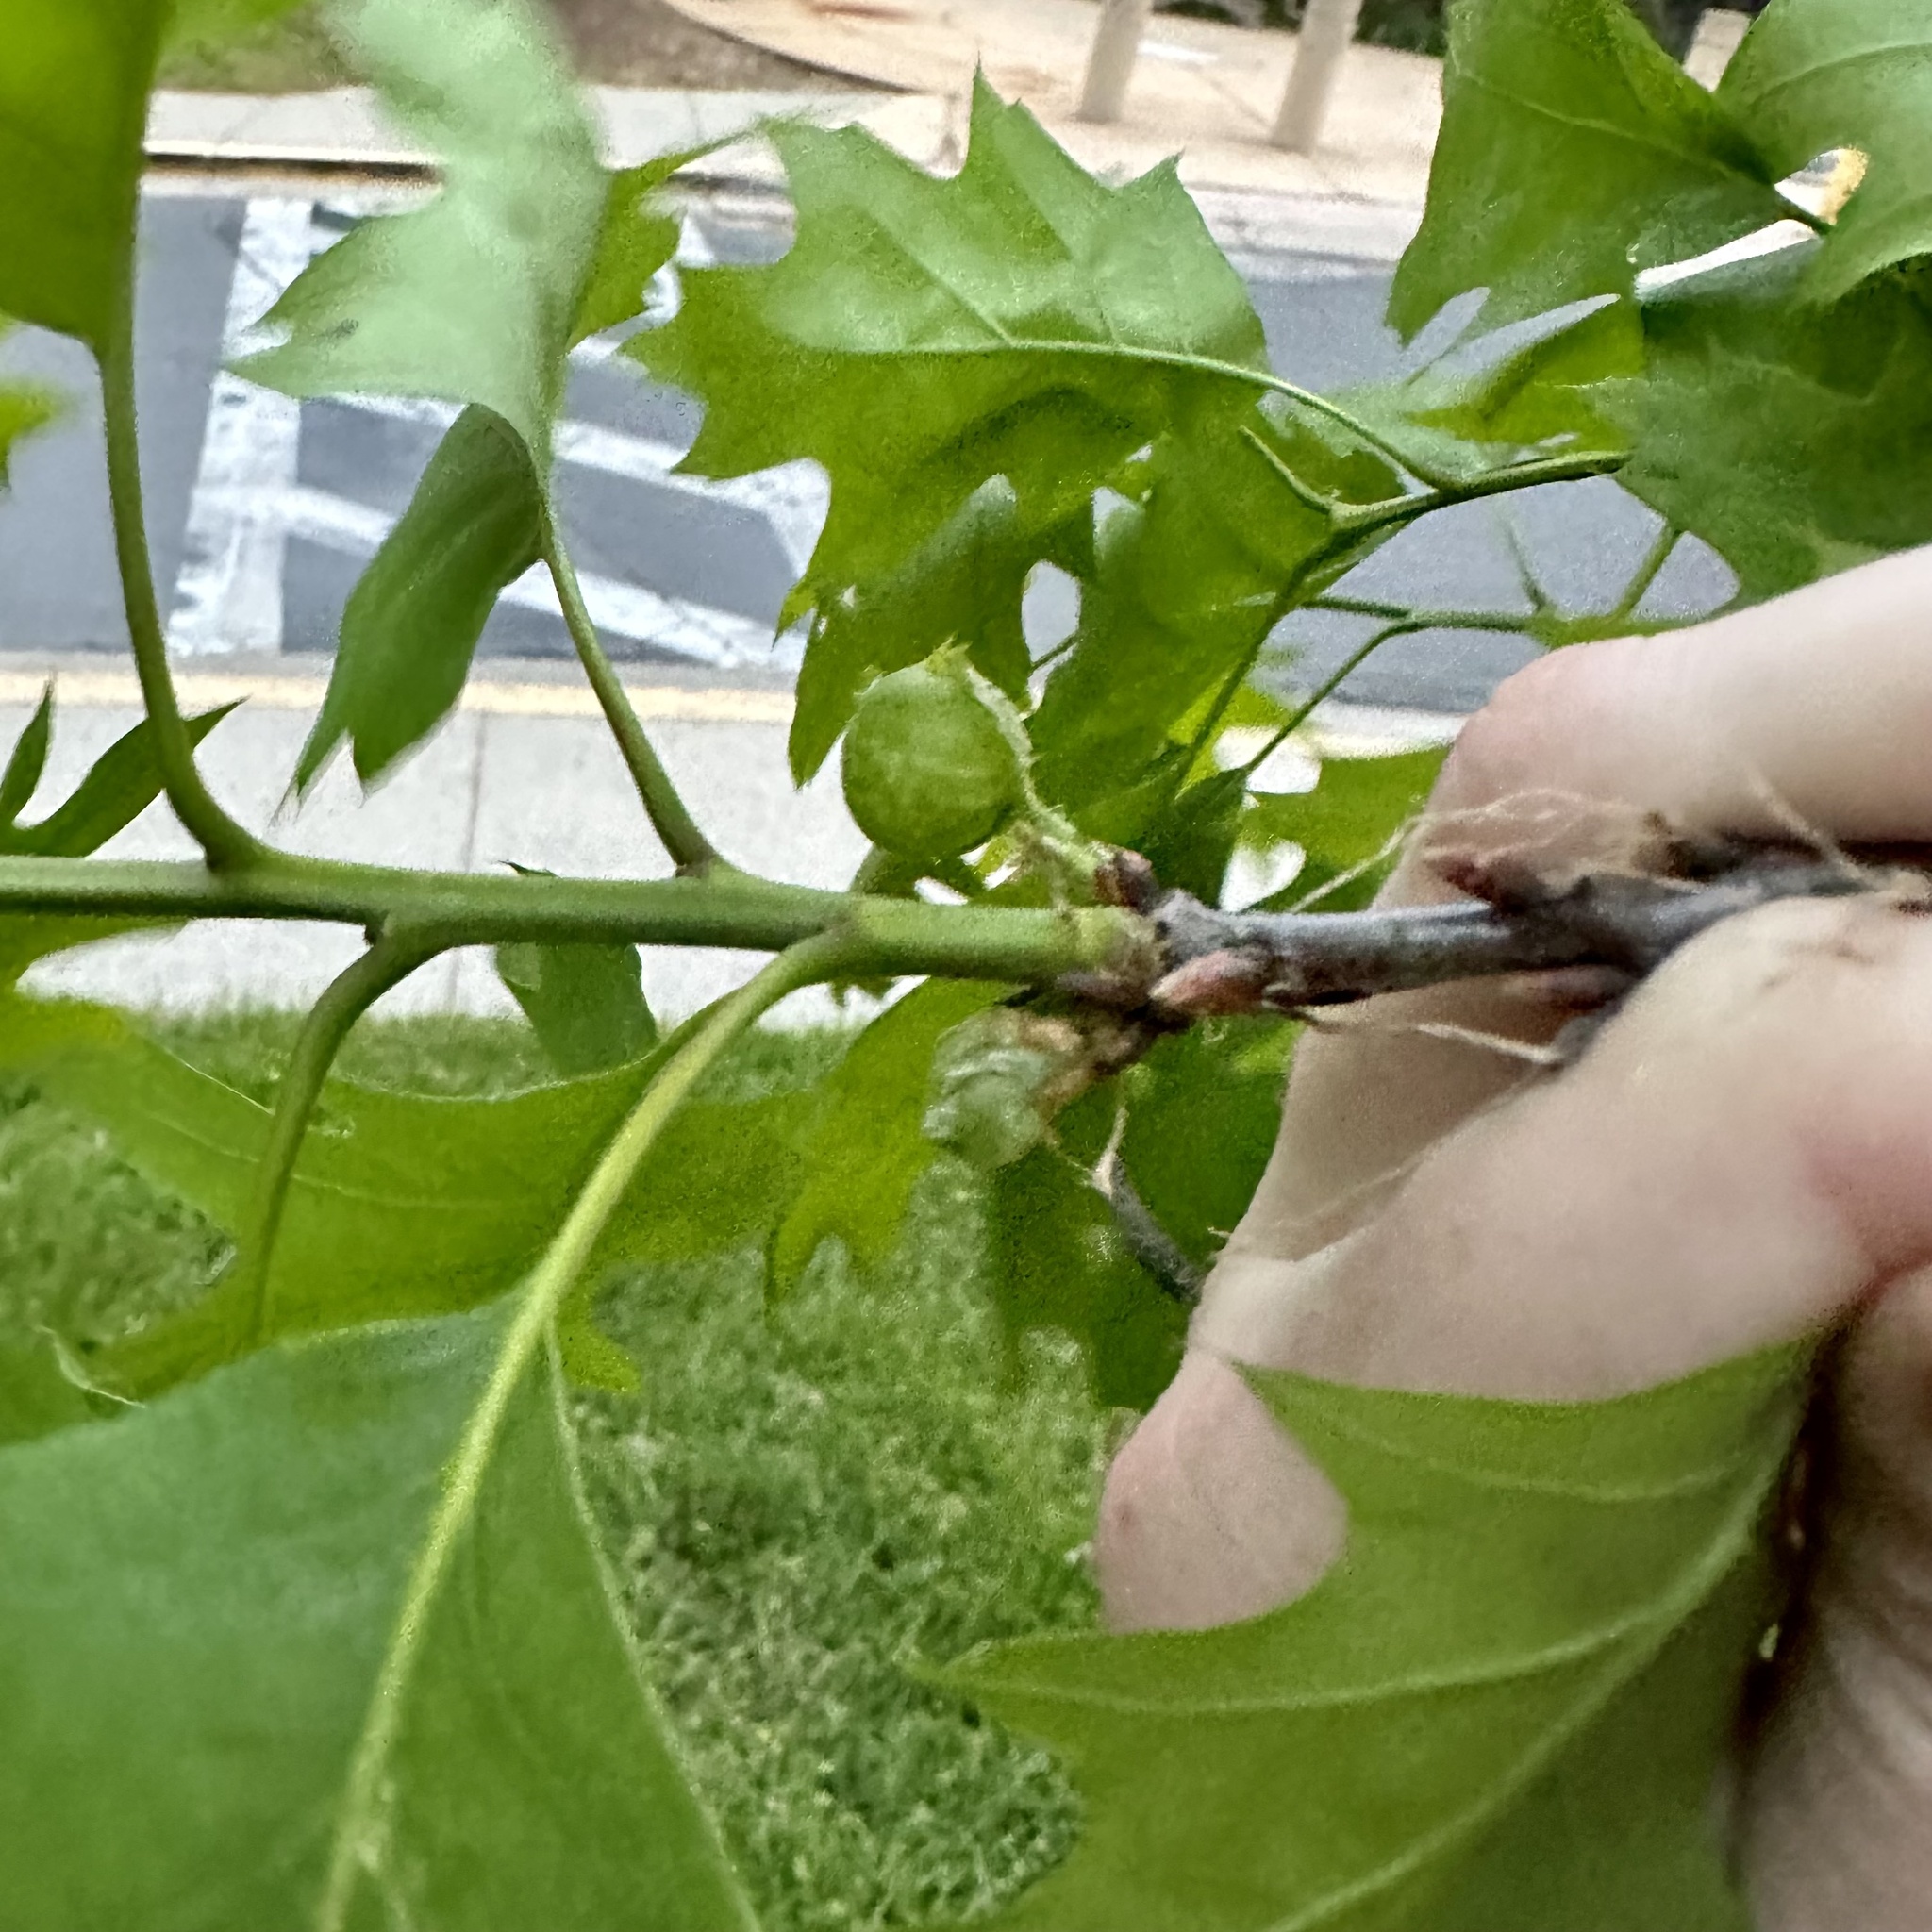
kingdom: Animalia
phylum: Arthropoda
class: Insecta
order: Hymenoptera
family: Cynipidae
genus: Dryocosmus
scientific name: Dryocosmus quercuspalustris
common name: Succulent oak gall wasp
